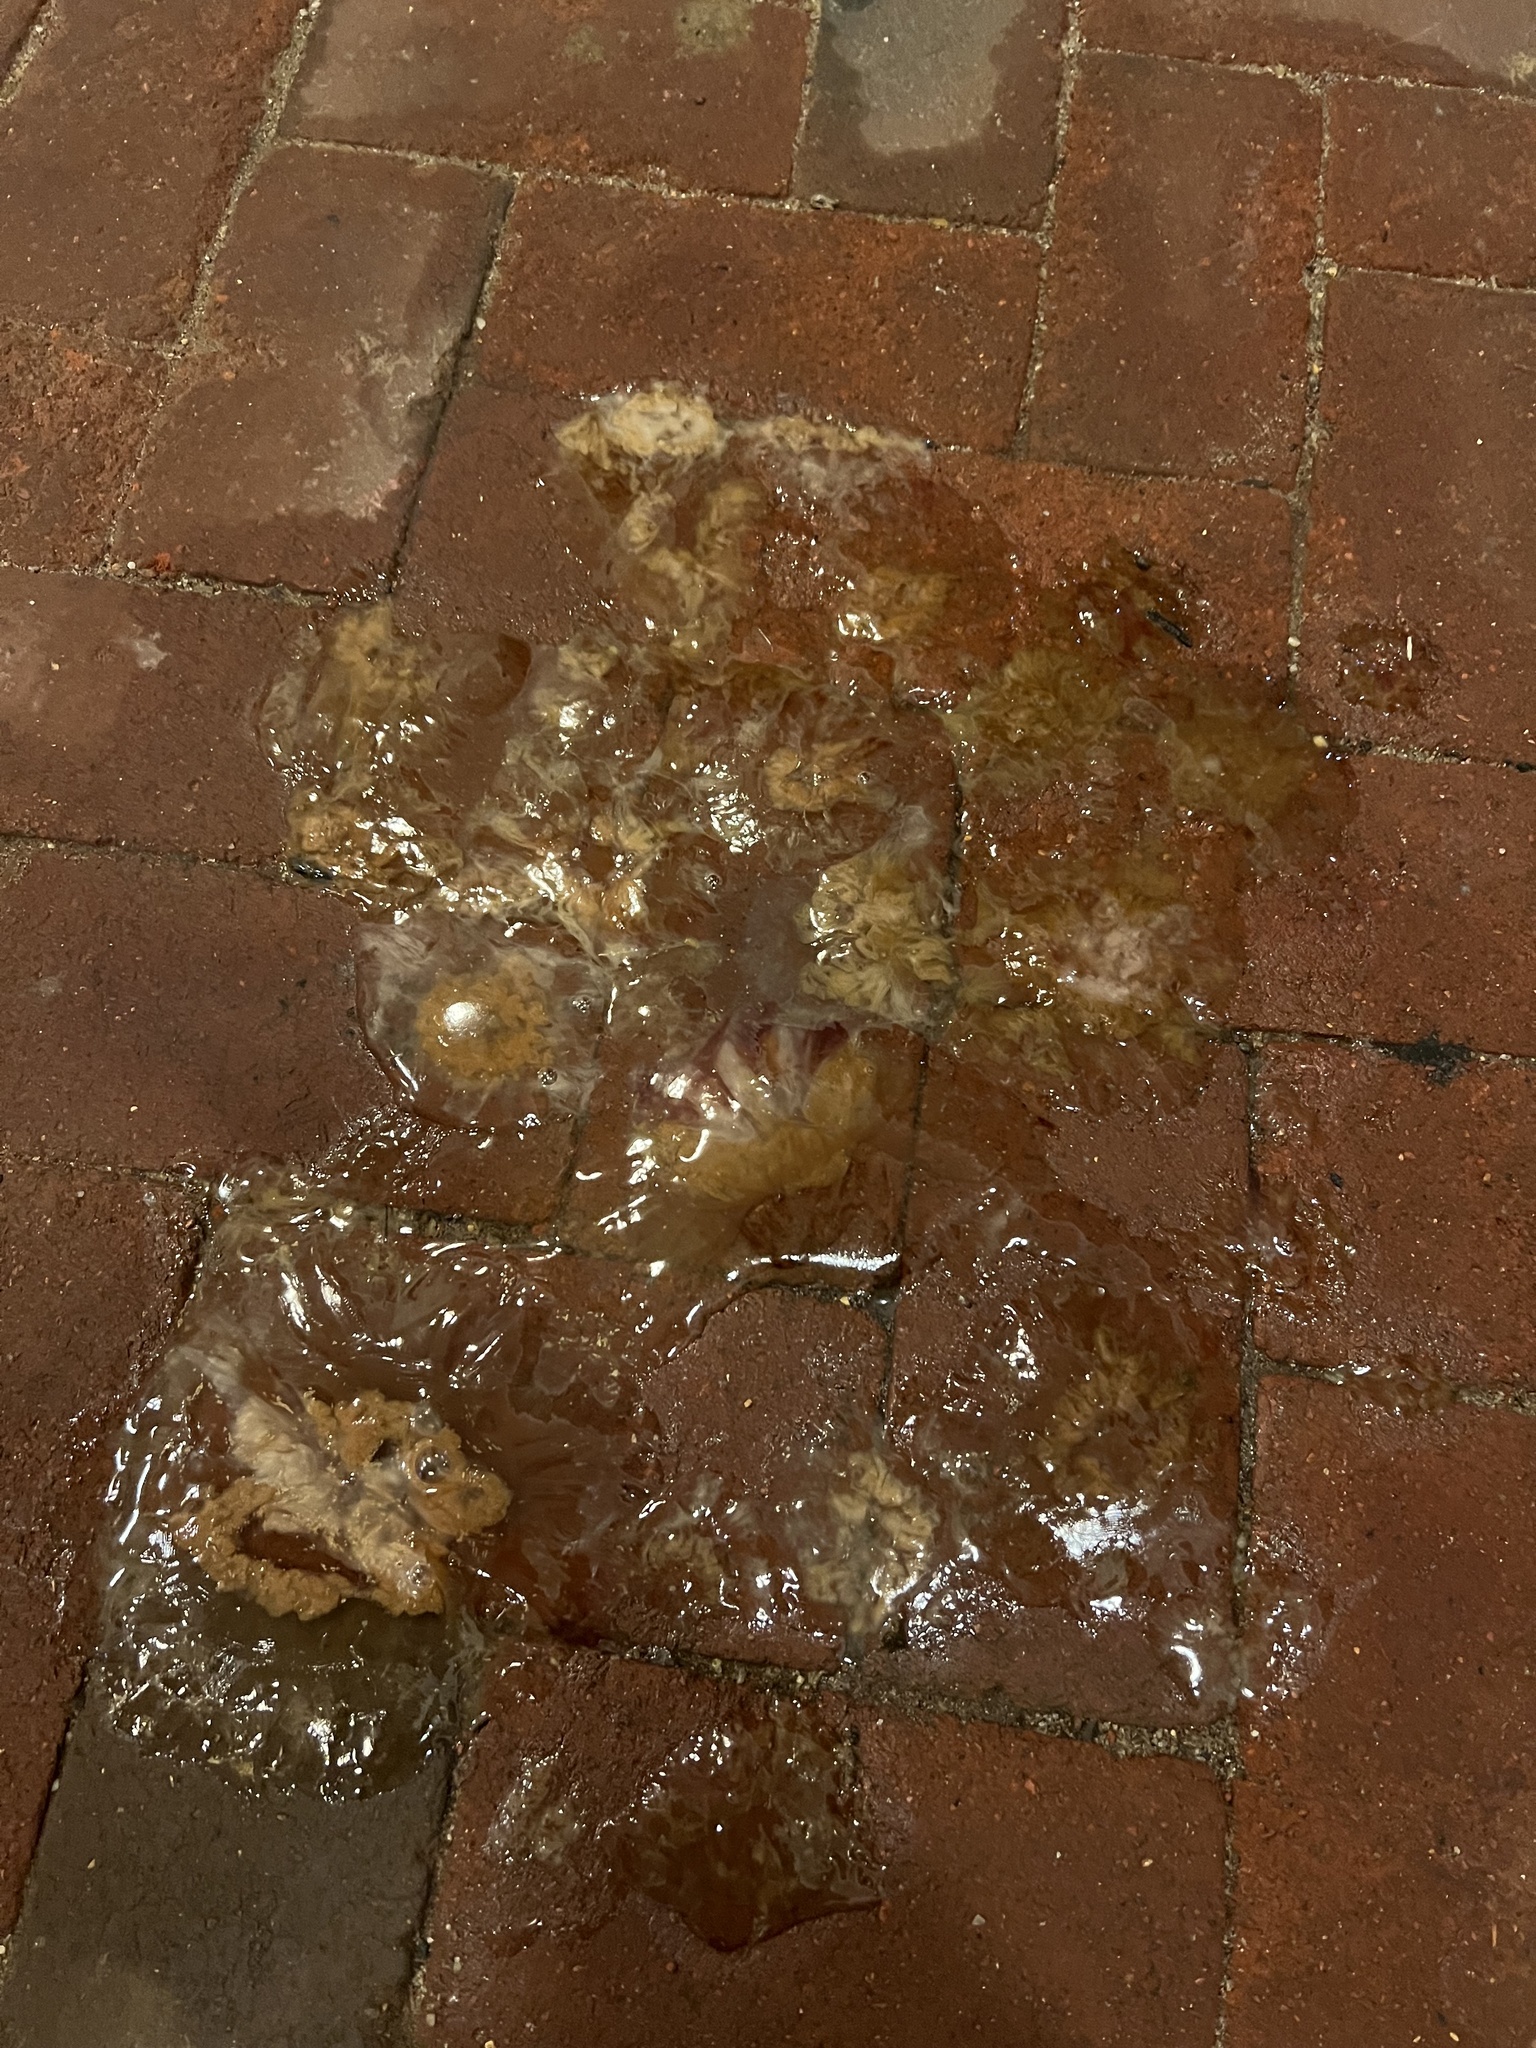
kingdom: Animalia
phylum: Cnidaria
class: Scyphozoa
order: Semaeostomeae
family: Cyaneidae
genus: Cyanea
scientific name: Cyanea fulva
